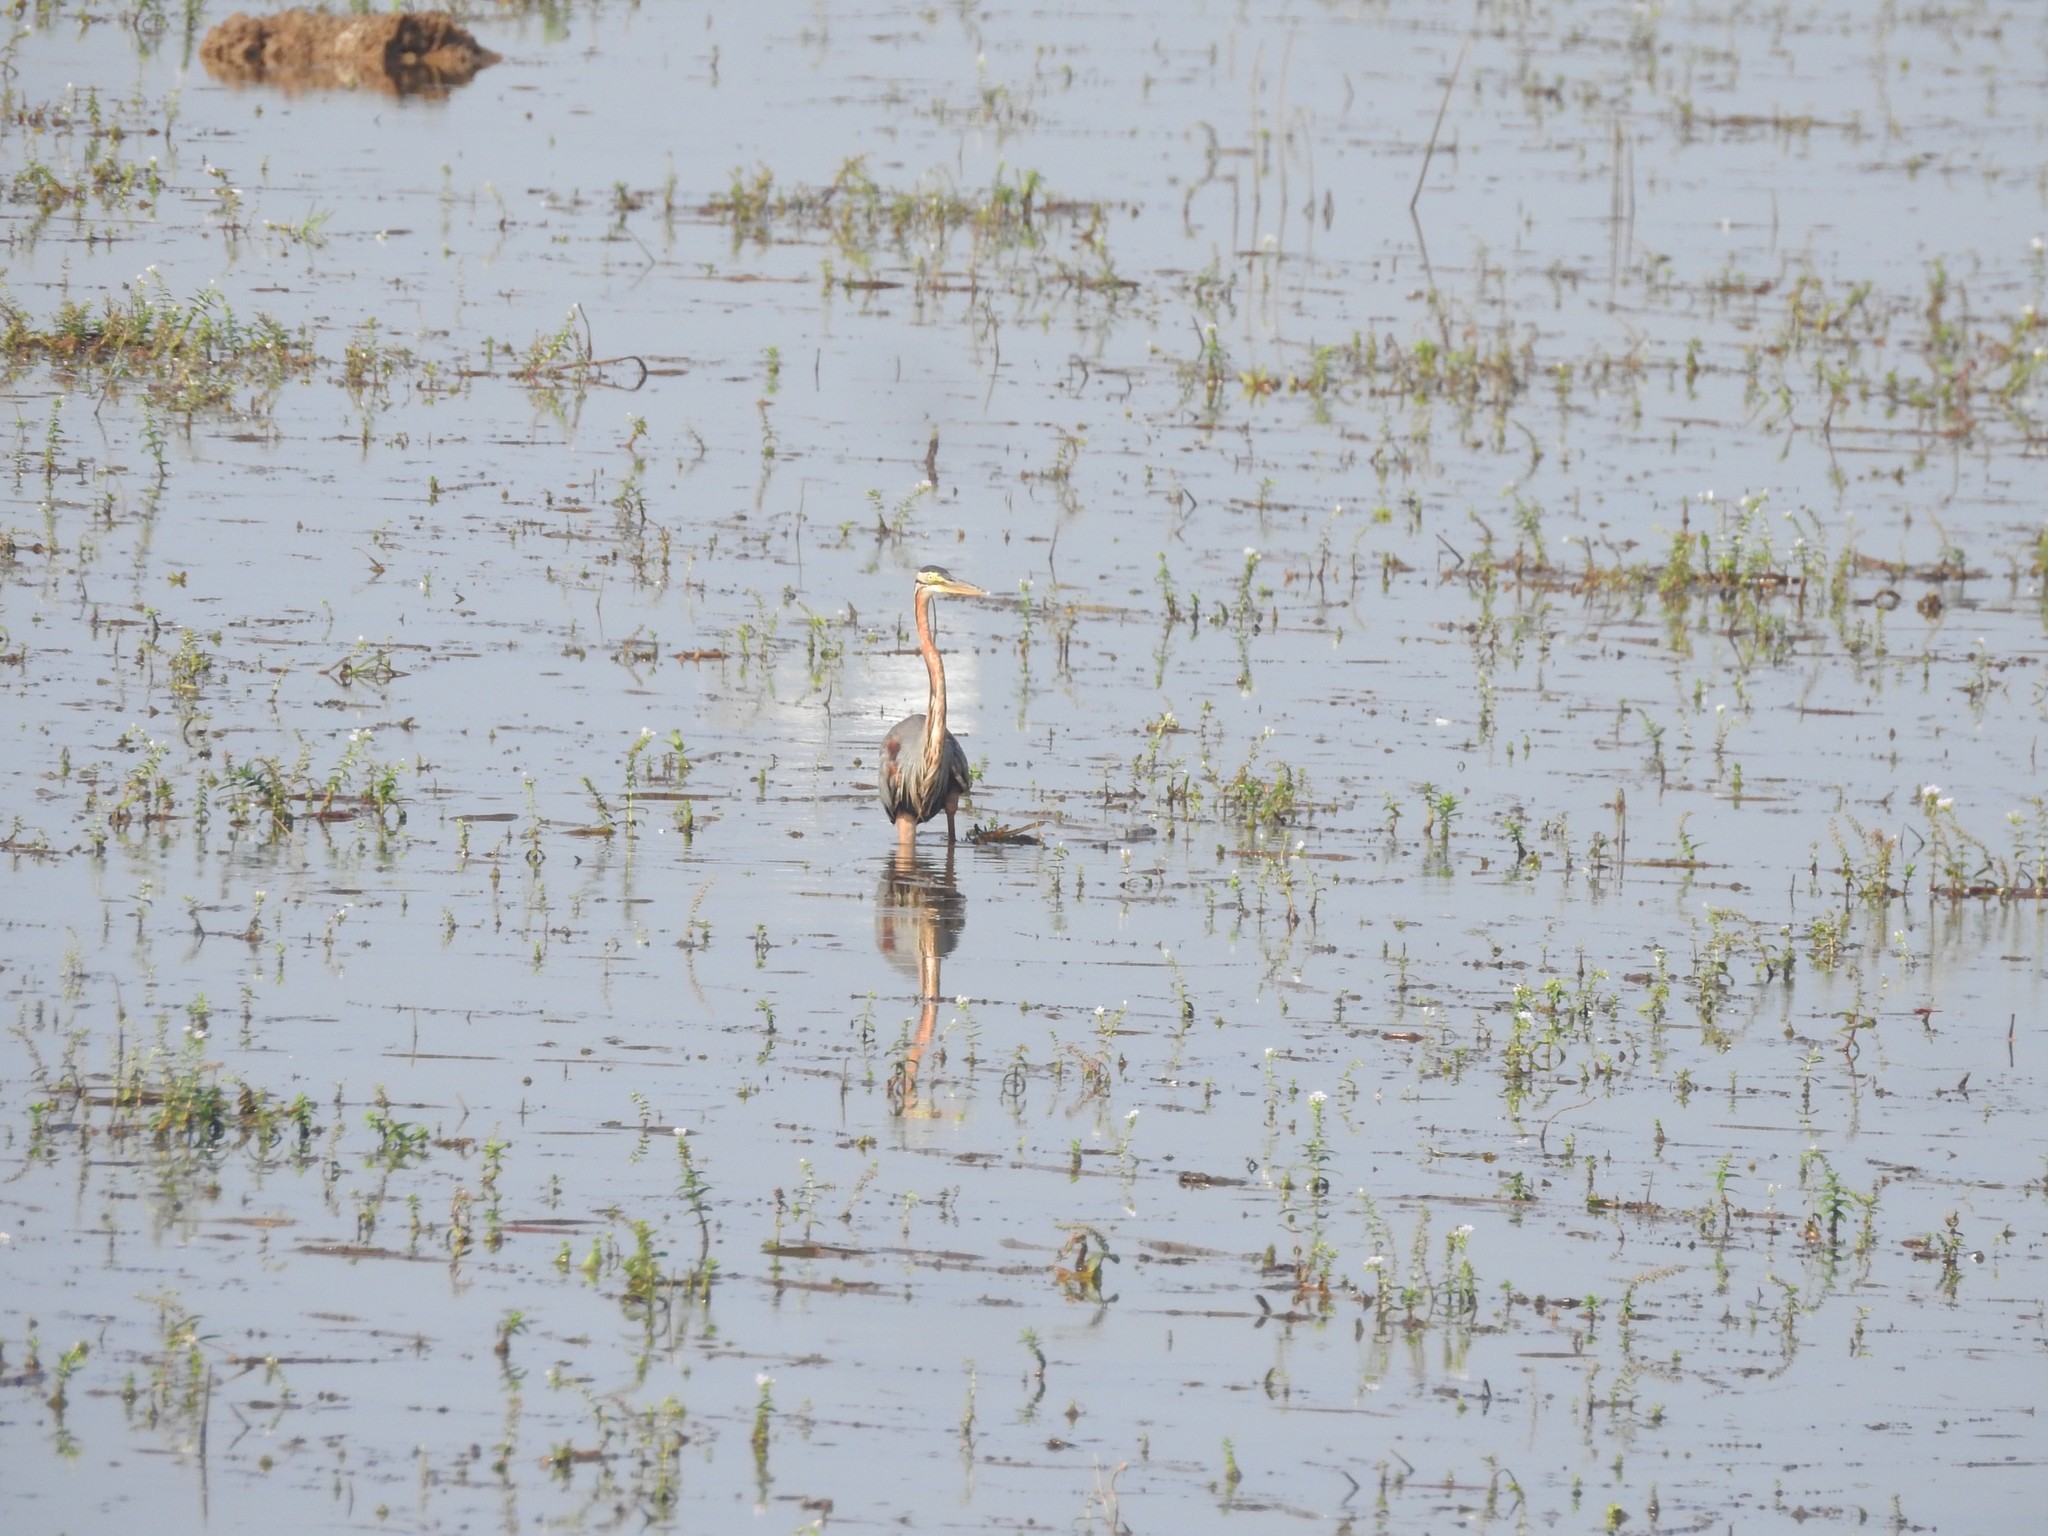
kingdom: Animalia
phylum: Chordata
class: Aves
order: Pelecaniformes
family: Ardeidae
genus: Ardea
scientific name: Ardea purpurea
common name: Purple heron
